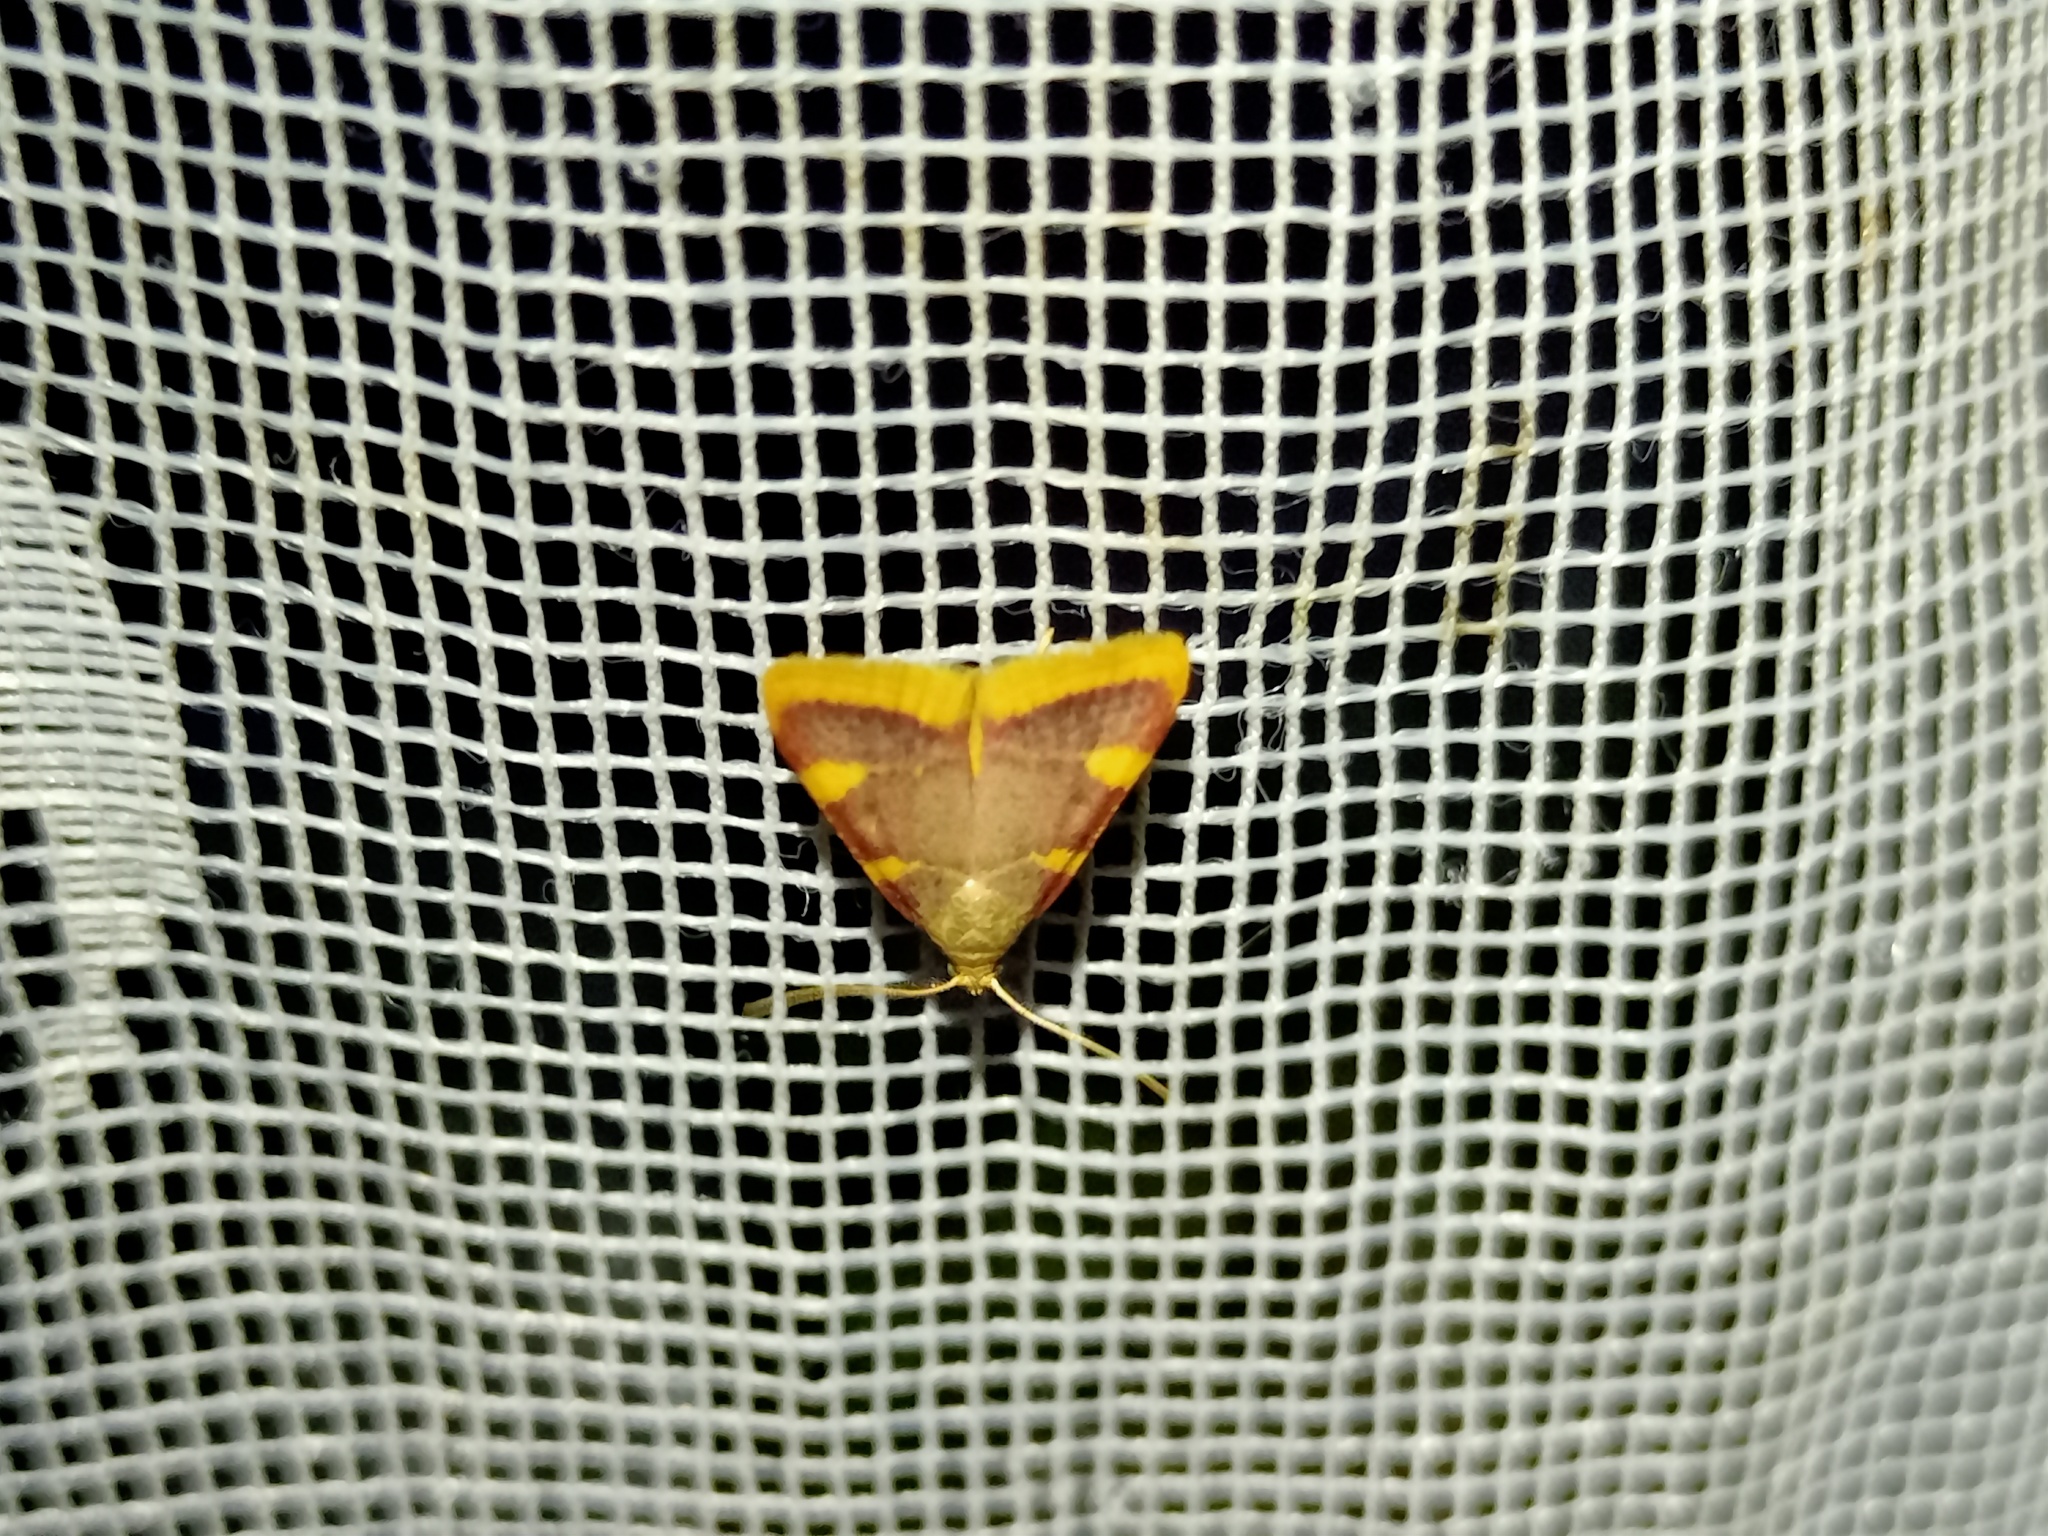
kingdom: Animalia
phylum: Arthropoda
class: Insecta
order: Lepidoptera
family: Pyralidae
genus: Hypsopygia
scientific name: Hypsopygia costalis
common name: Gold triangle
